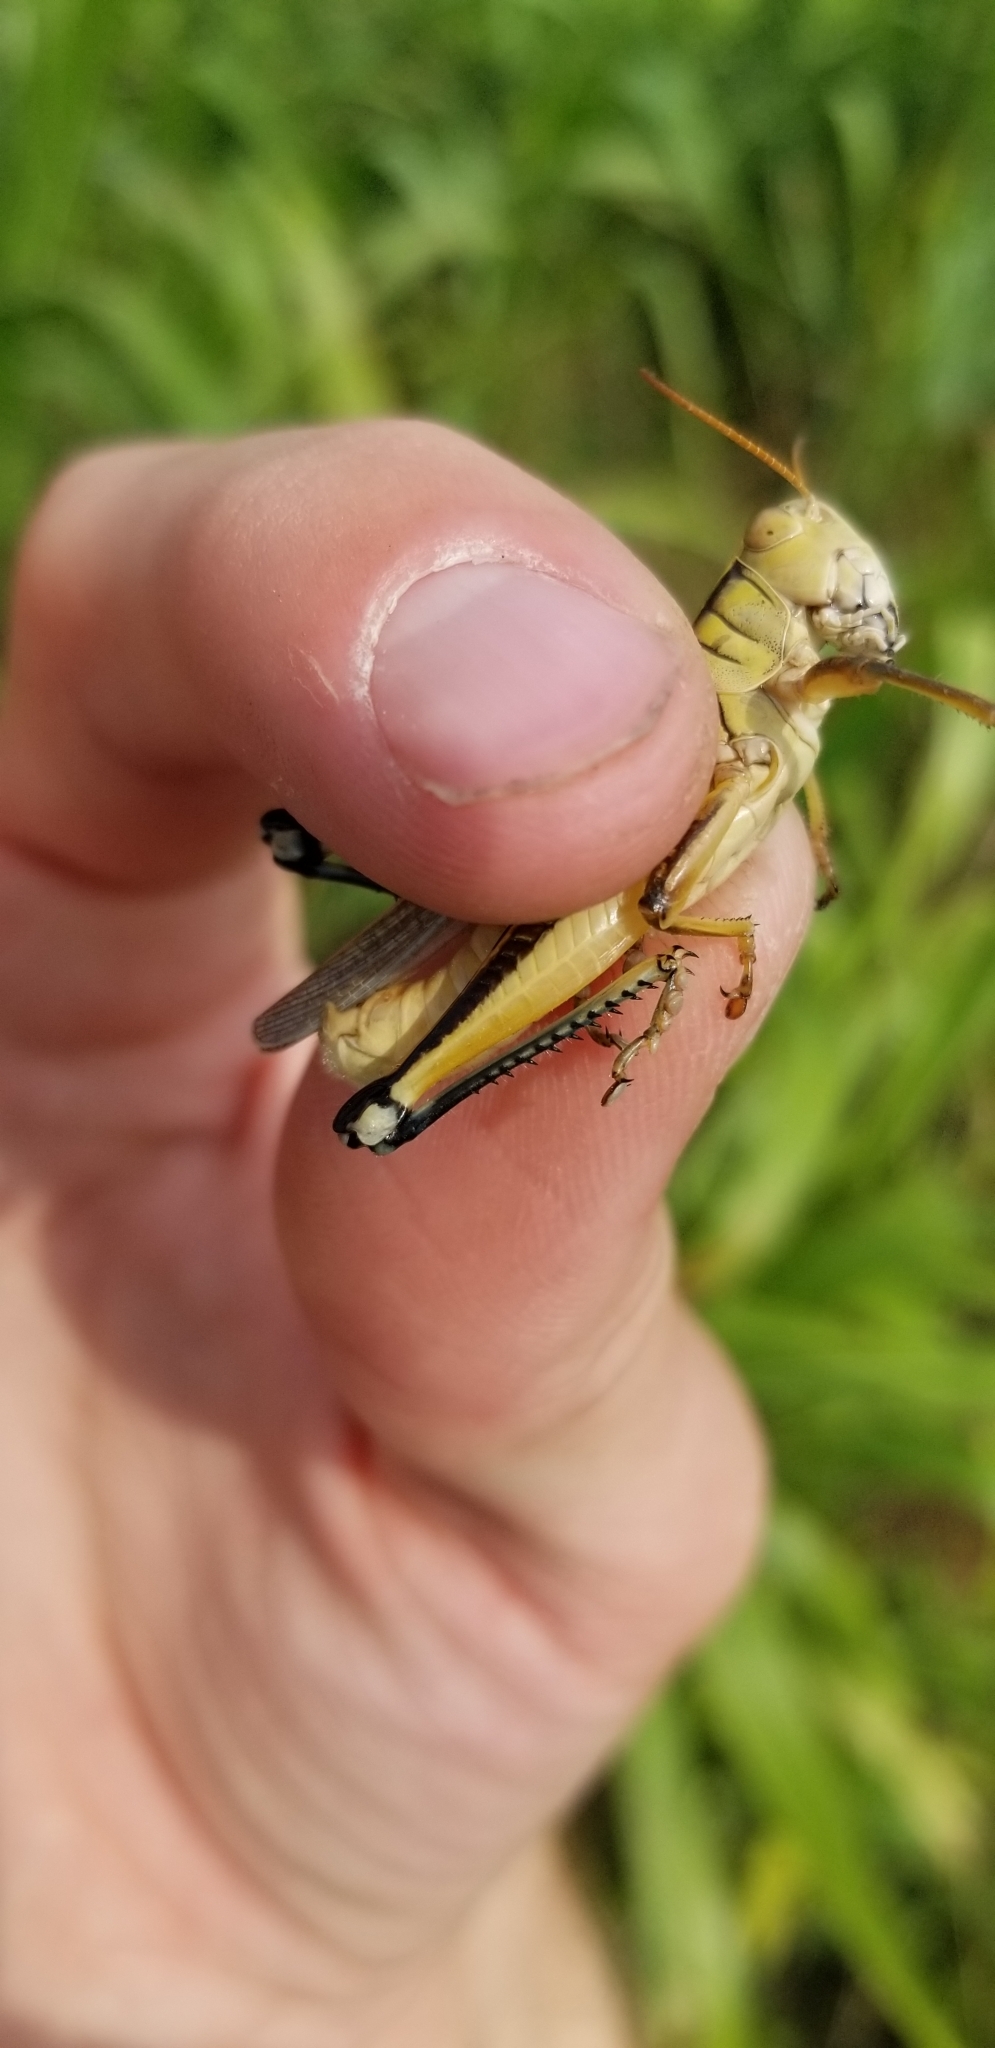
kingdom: Animalia
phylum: Arthropoda
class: Insecta
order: Orthoptera
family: Acrididae
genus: Melanoplus
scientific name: Melanoplus bivittatus
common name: Two-striped grasshopper
